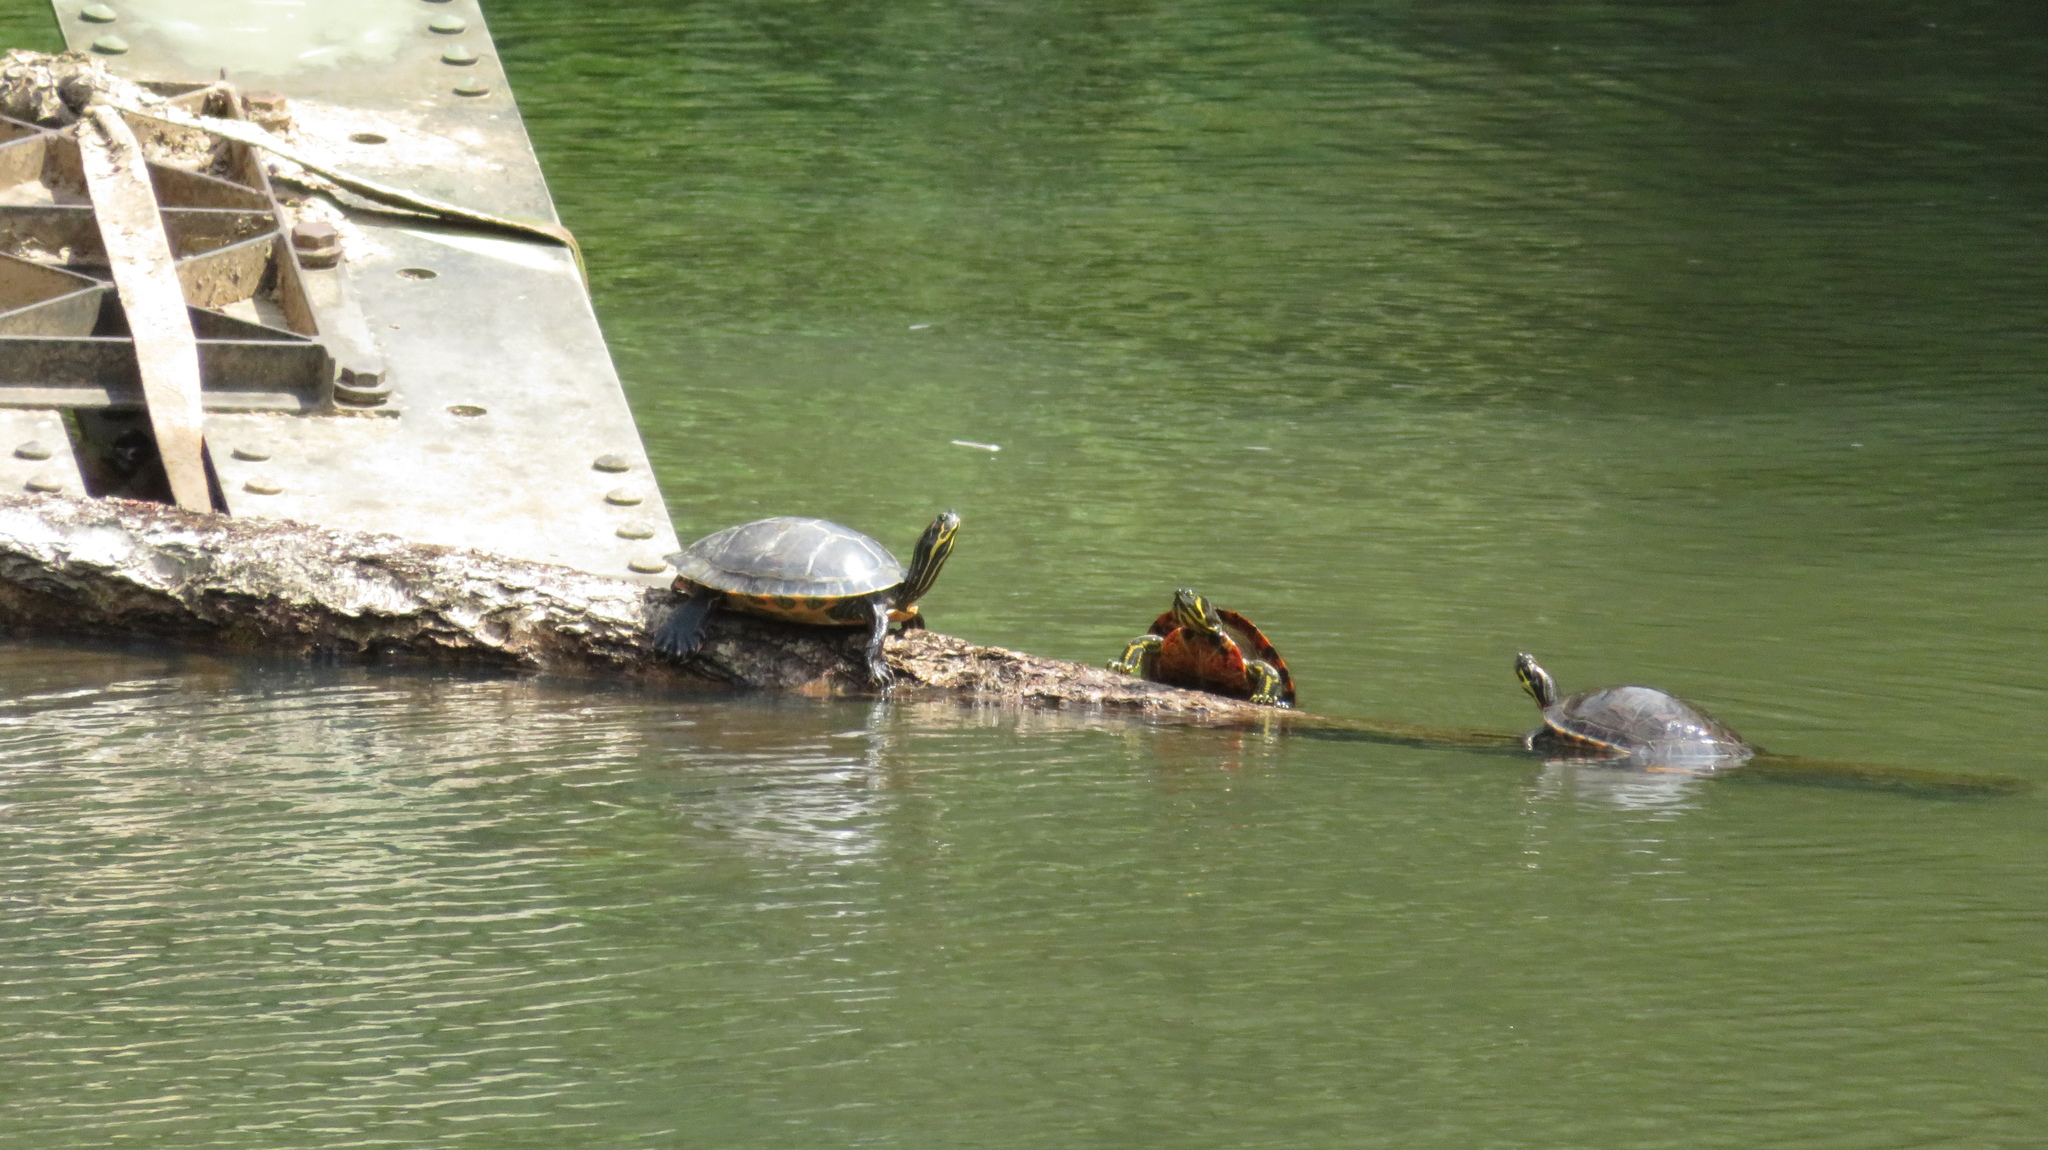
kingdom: Animalia
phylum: Chordata
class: Testudines
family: Emydidae
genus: Trachemys
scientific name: Trachemys scripta
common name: Slider
